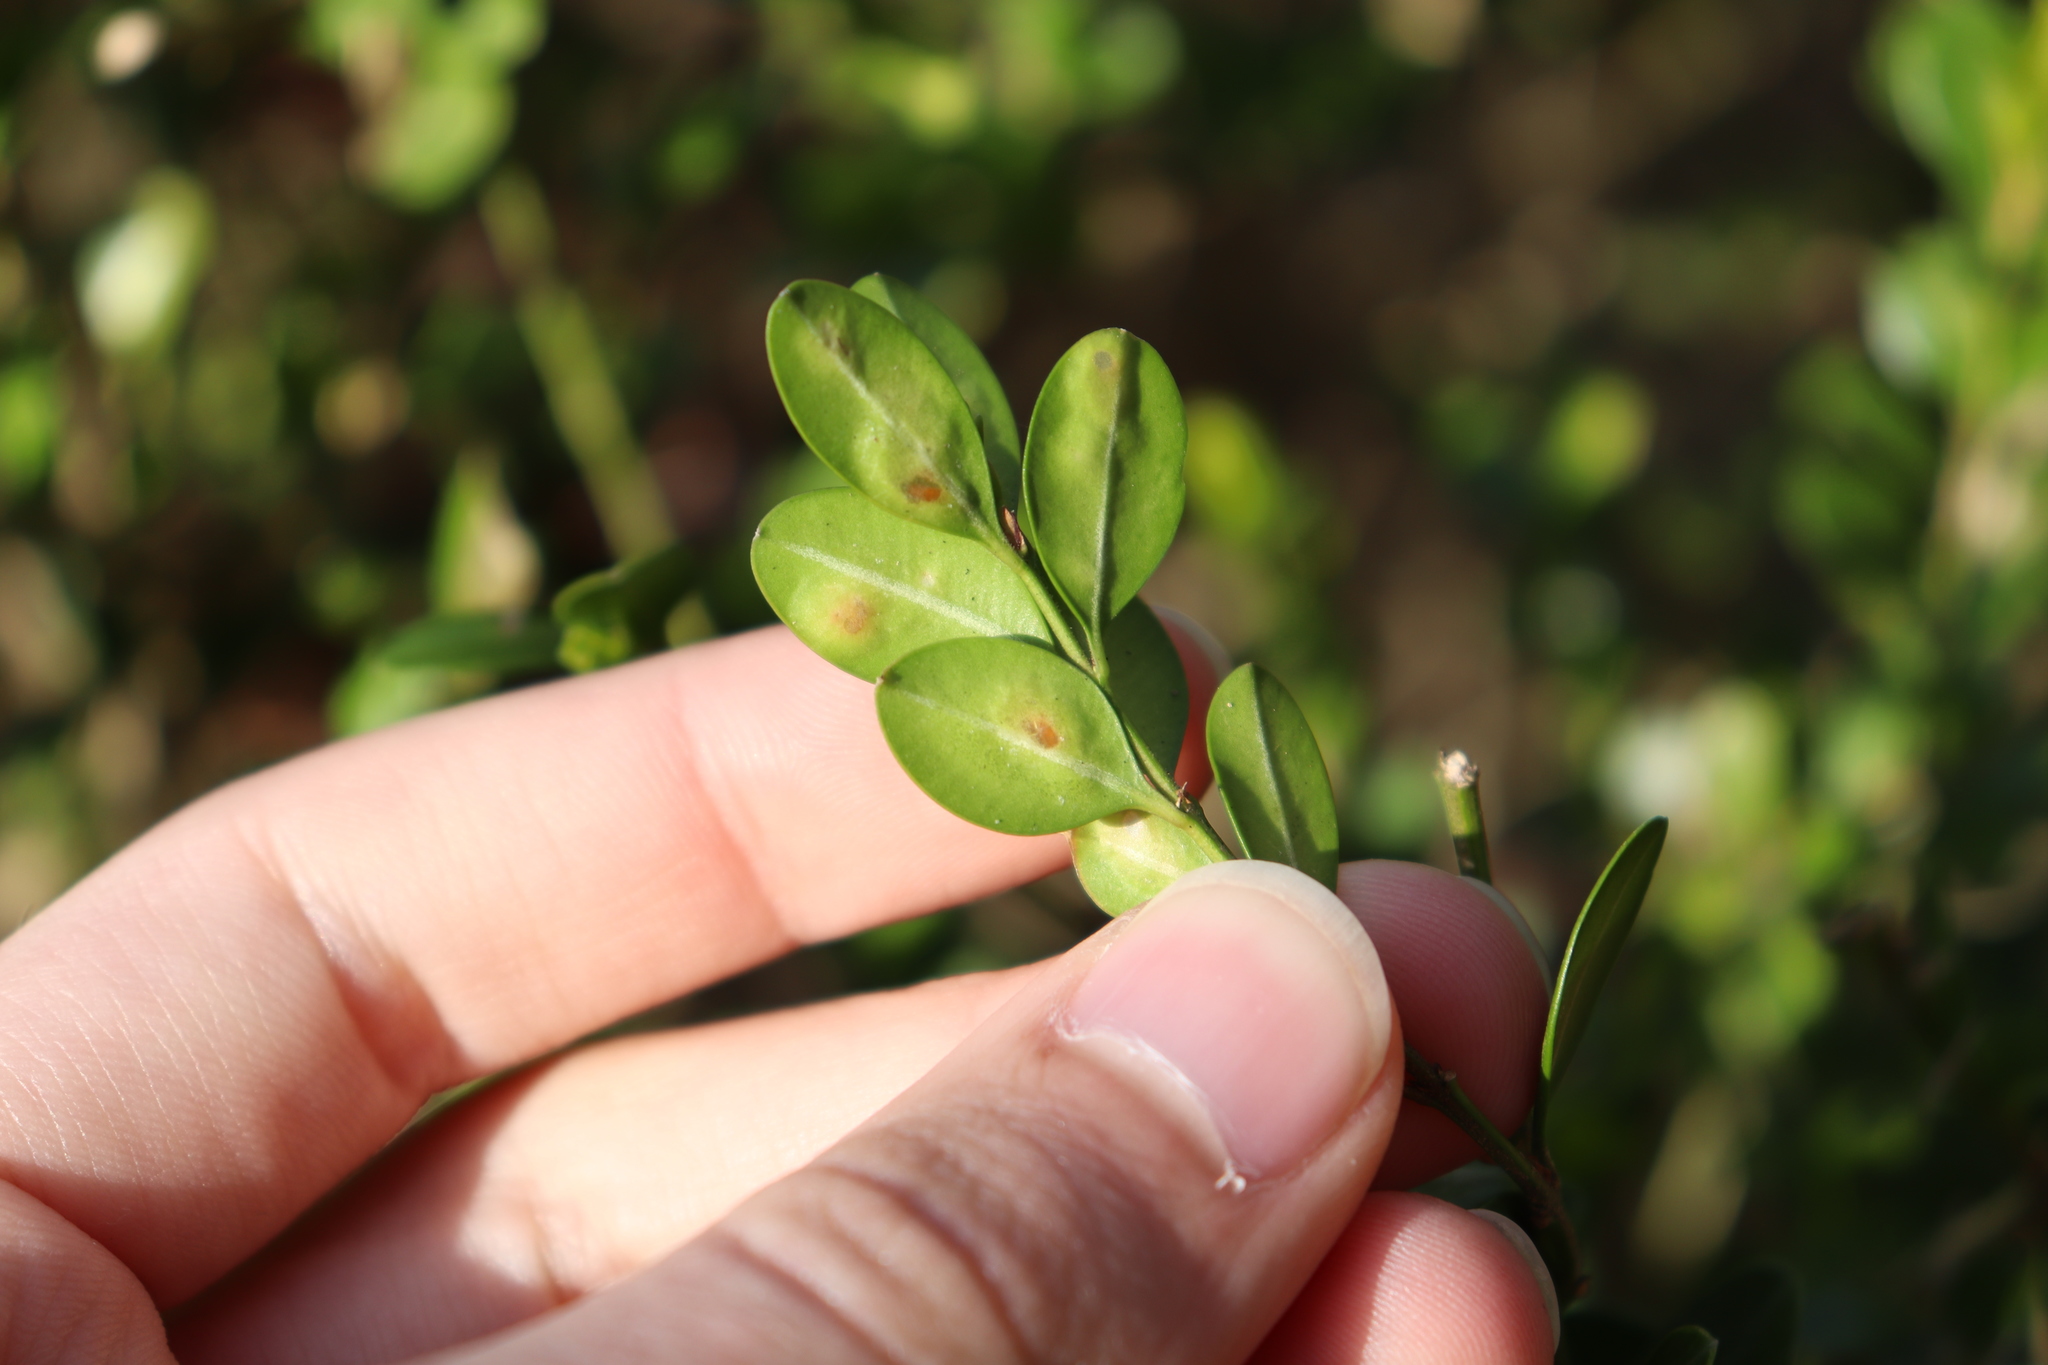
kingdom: Animalia
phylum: Arthropoda
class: Insecta
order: Diptera
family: Cecidomyiidae
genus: Monarthropalpus
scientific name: Monarthropalpus flavus
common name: Boxwood leafminer
